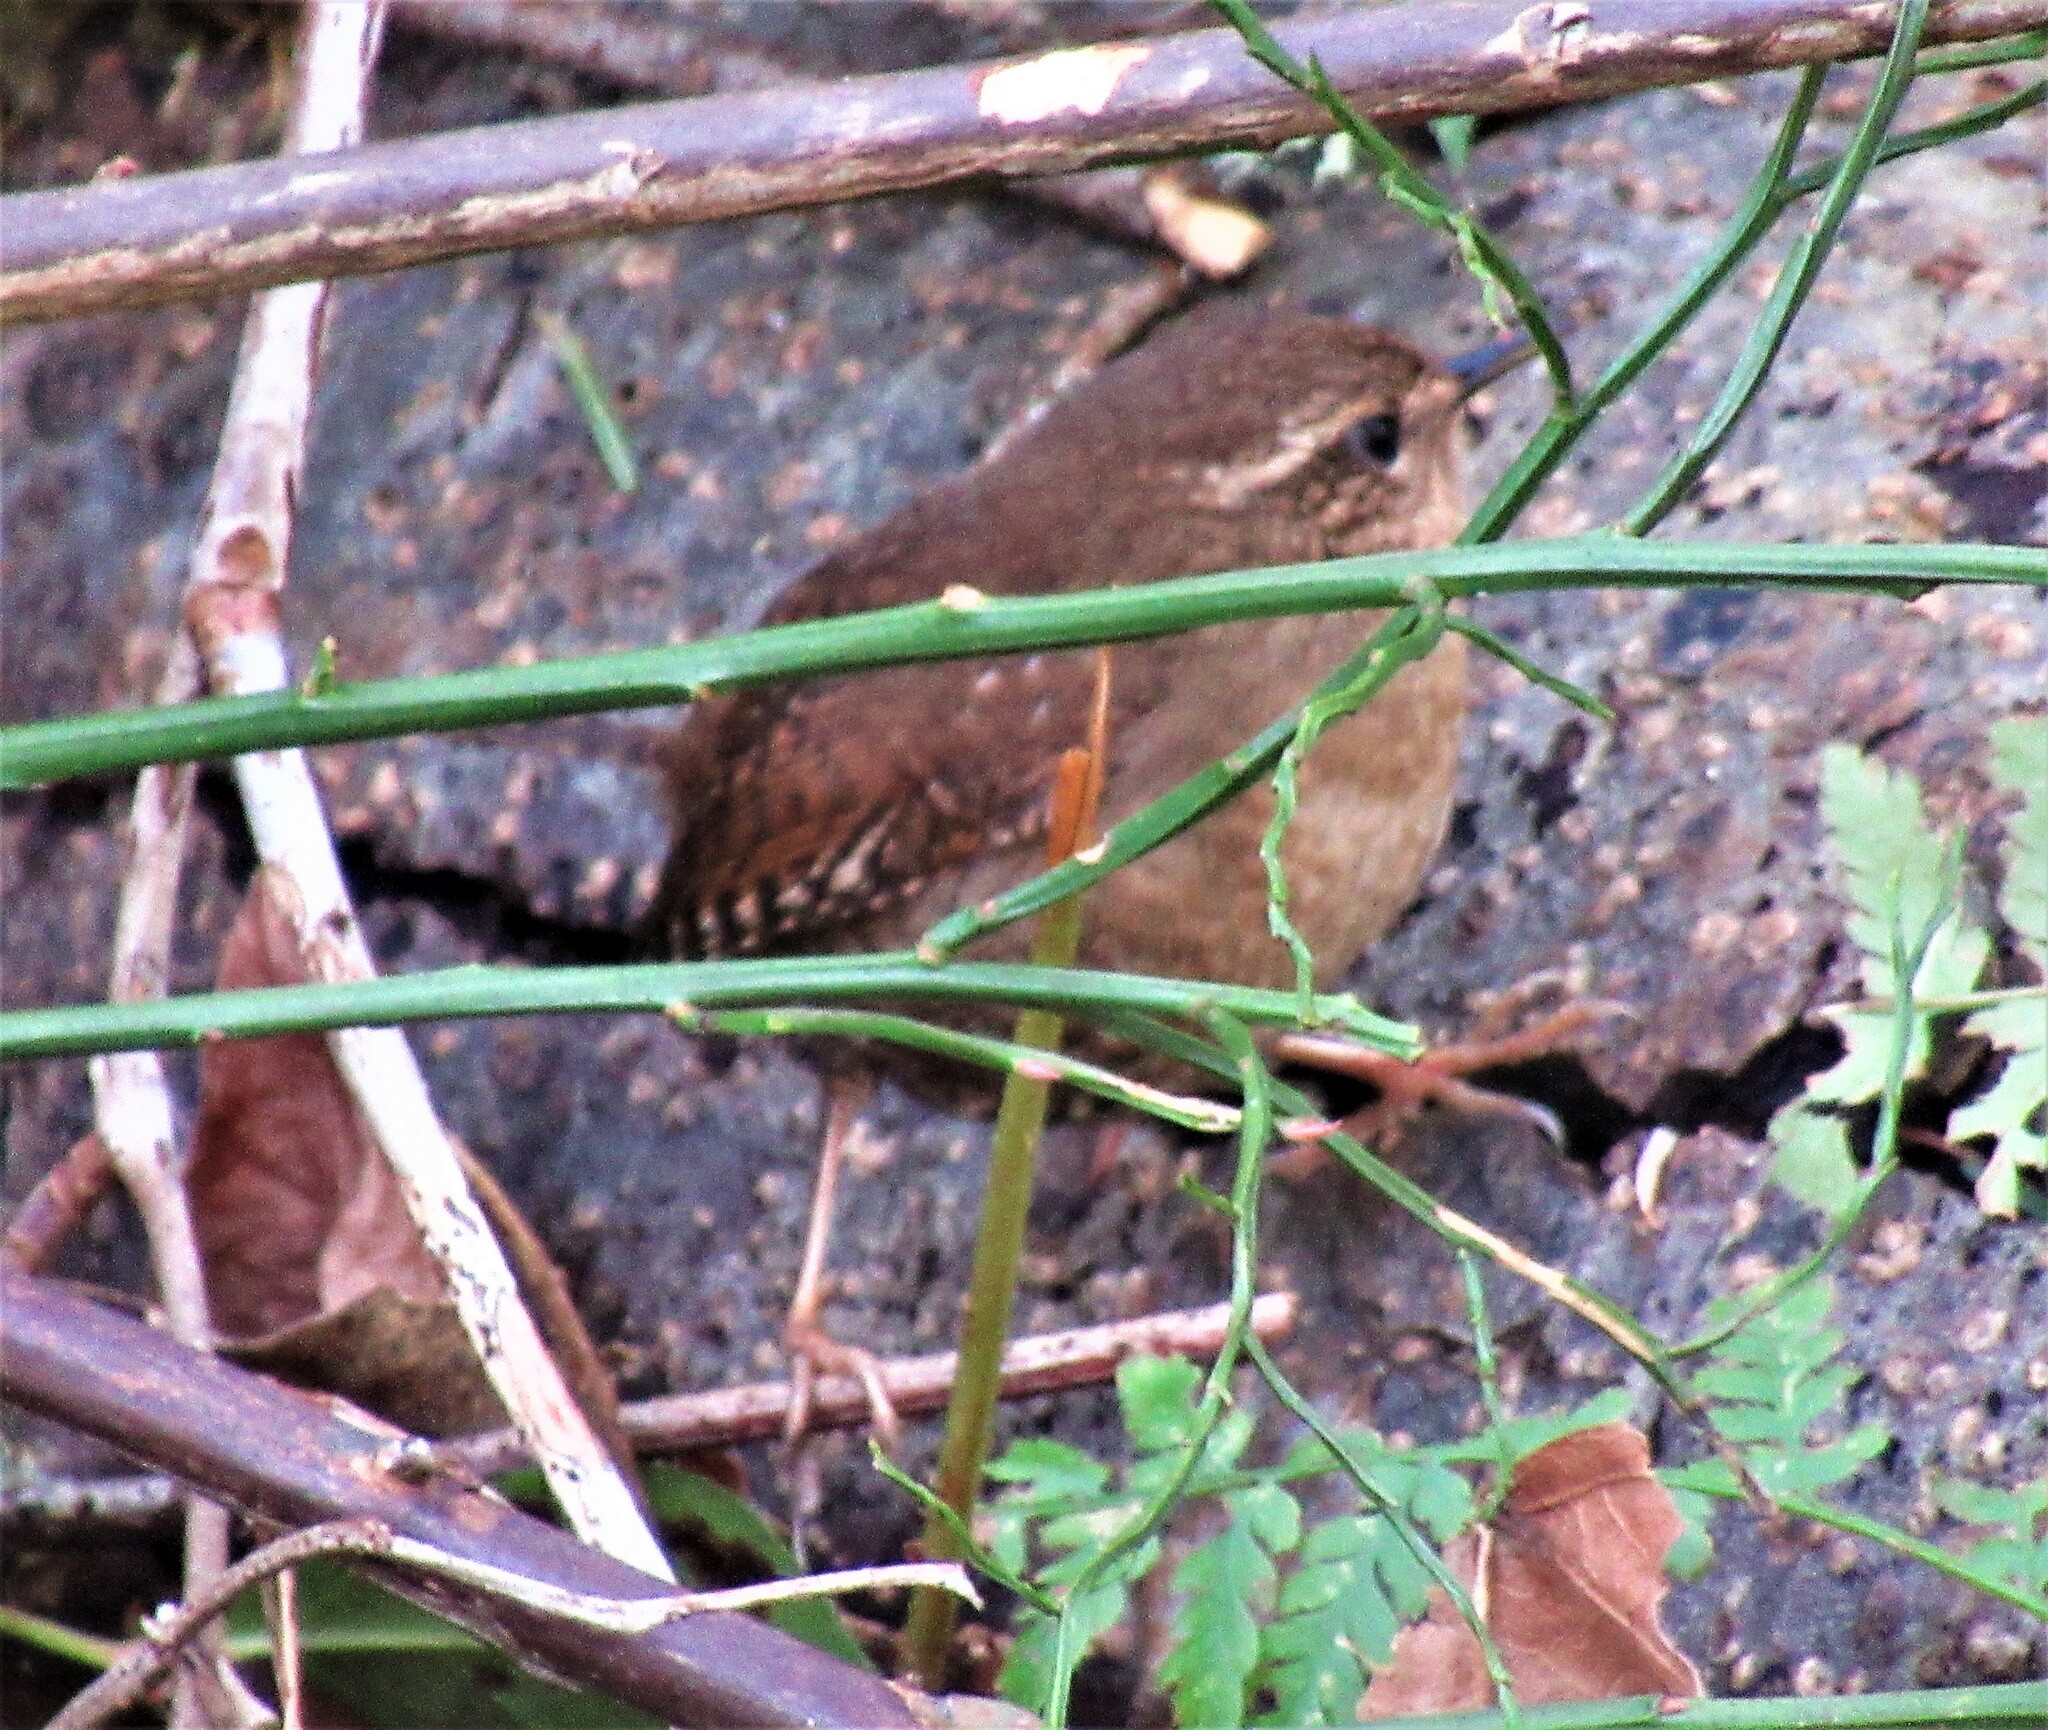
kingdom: Animalia
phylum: Chordata
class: Aves
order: Passeriformes
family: Troglodytidae
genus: Troglodytes
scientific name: Troglodytes pacificus
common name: Pacific wren
